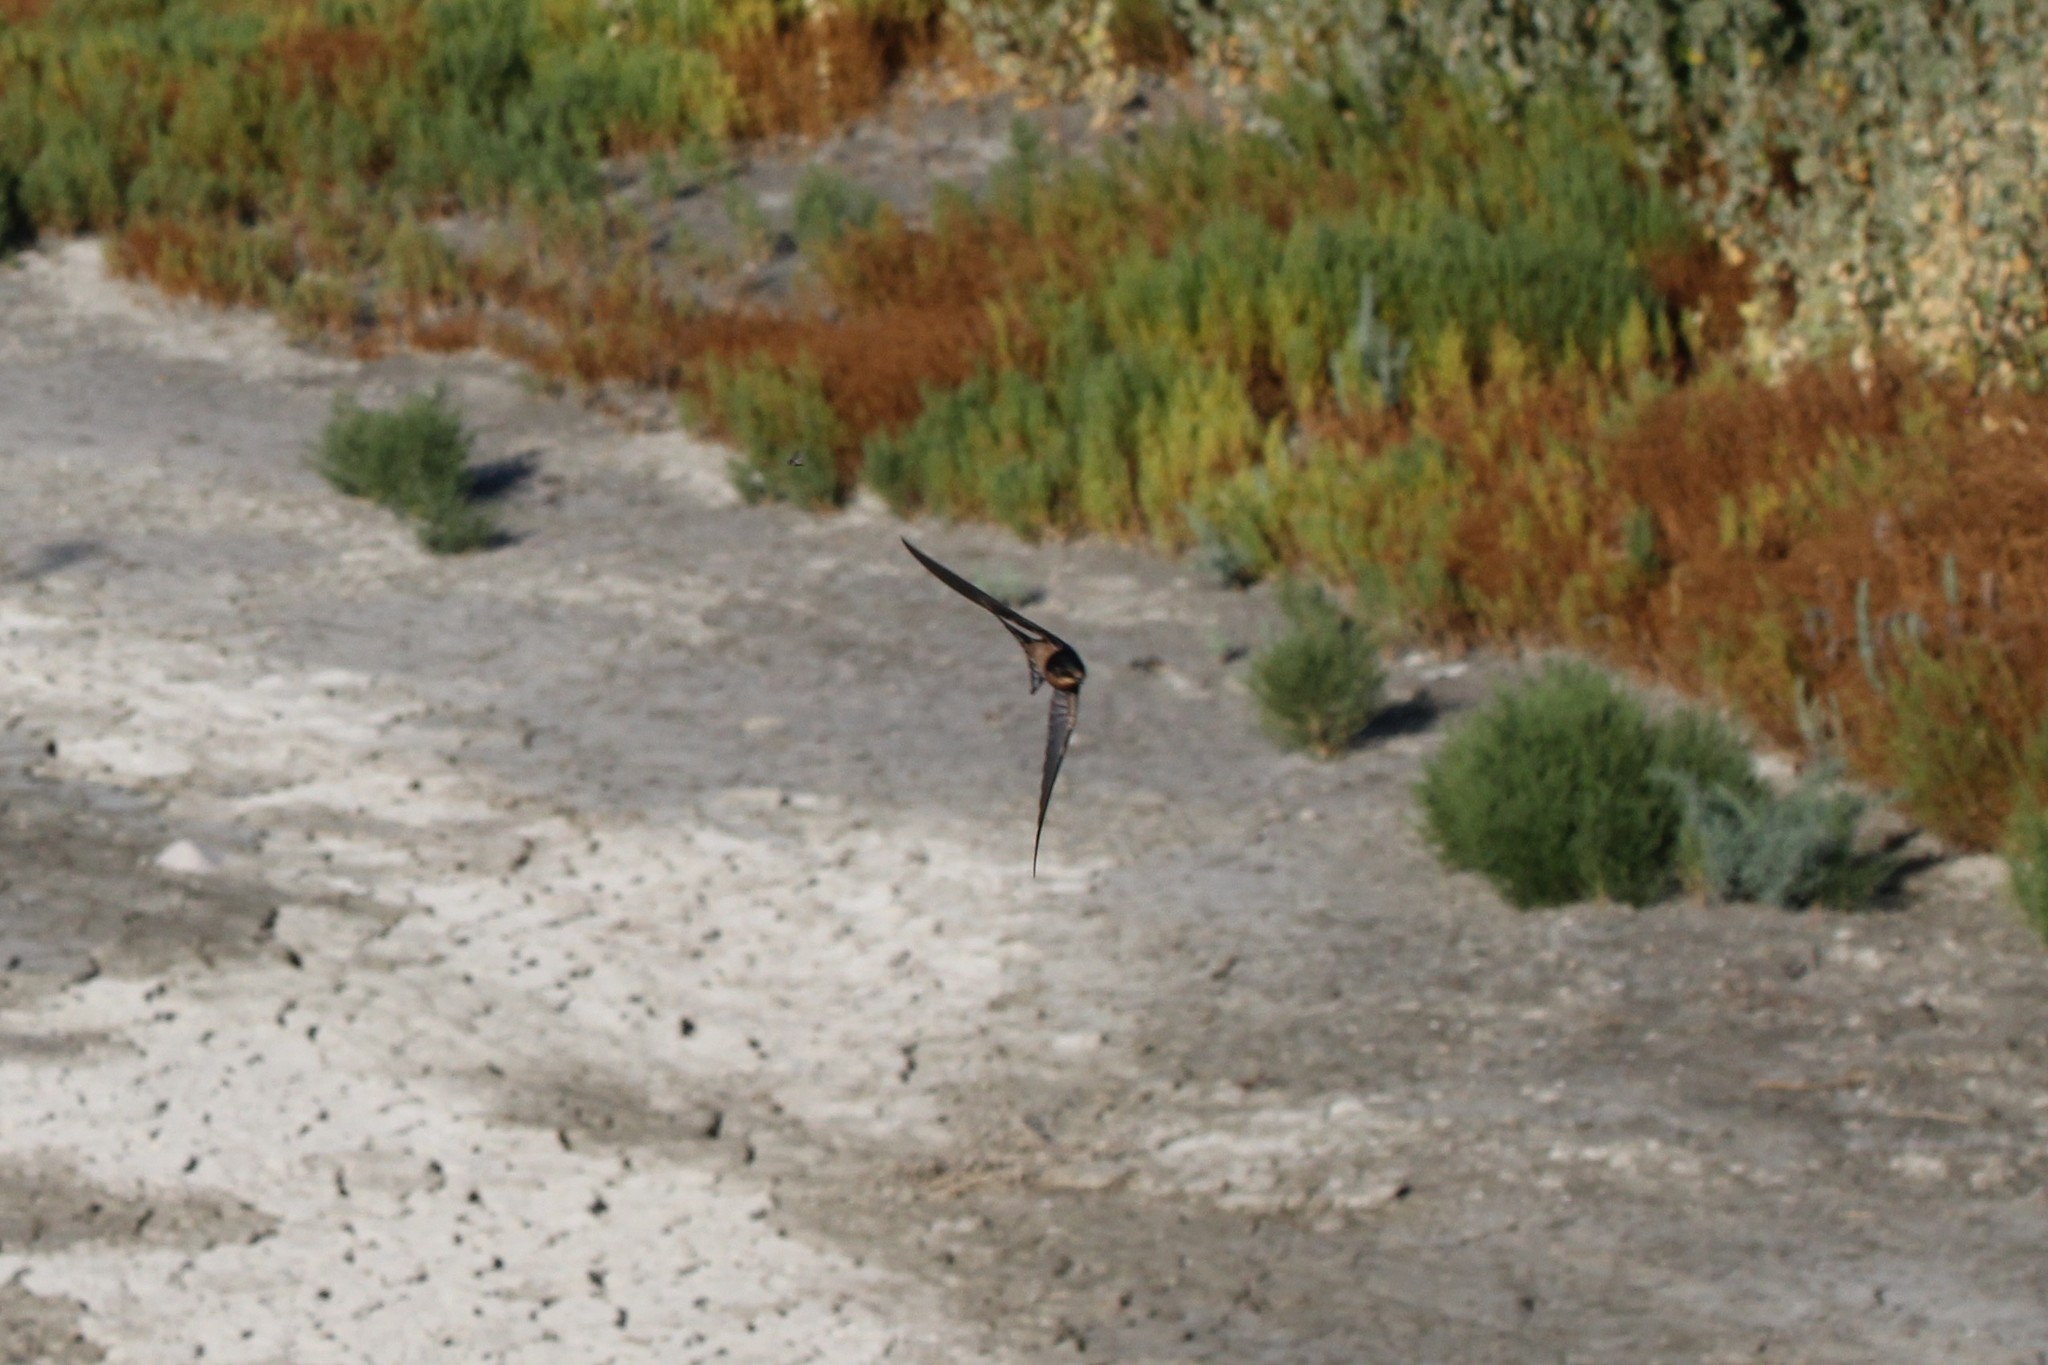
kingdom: Animalia
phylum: Chordata
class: Aves
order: Passeriformes
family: Hirundinidae
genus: Hirundo
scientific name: Hirundo rustica
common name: Barn swallow
